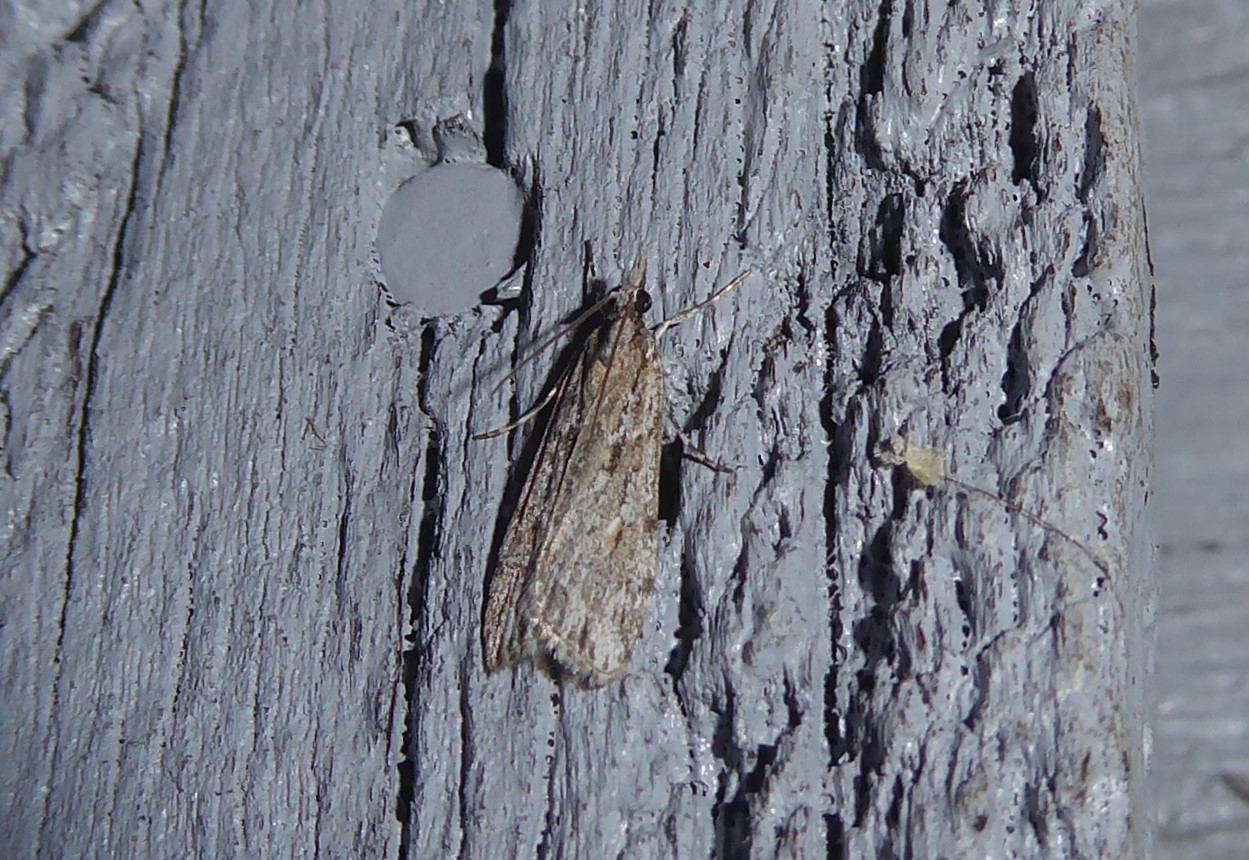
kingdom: Animalia
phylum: Arthropoda
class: Insecta
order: Lepidoptera
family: Crambidae
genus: Scoparia
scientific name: Scoparia chalicodes
